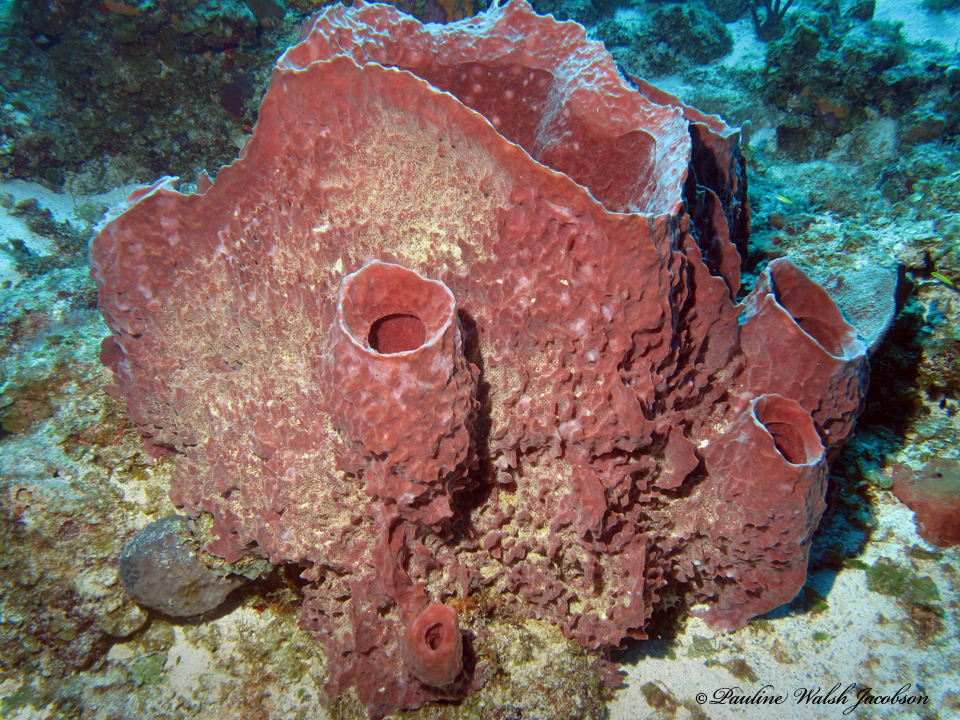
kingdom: Animalia
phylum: Porifera
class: Demospongiae
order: Haplosclerida
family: Petrosiidae
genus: Xestospongia
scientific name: Xestospongia muta
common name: Giant barrel sponge
